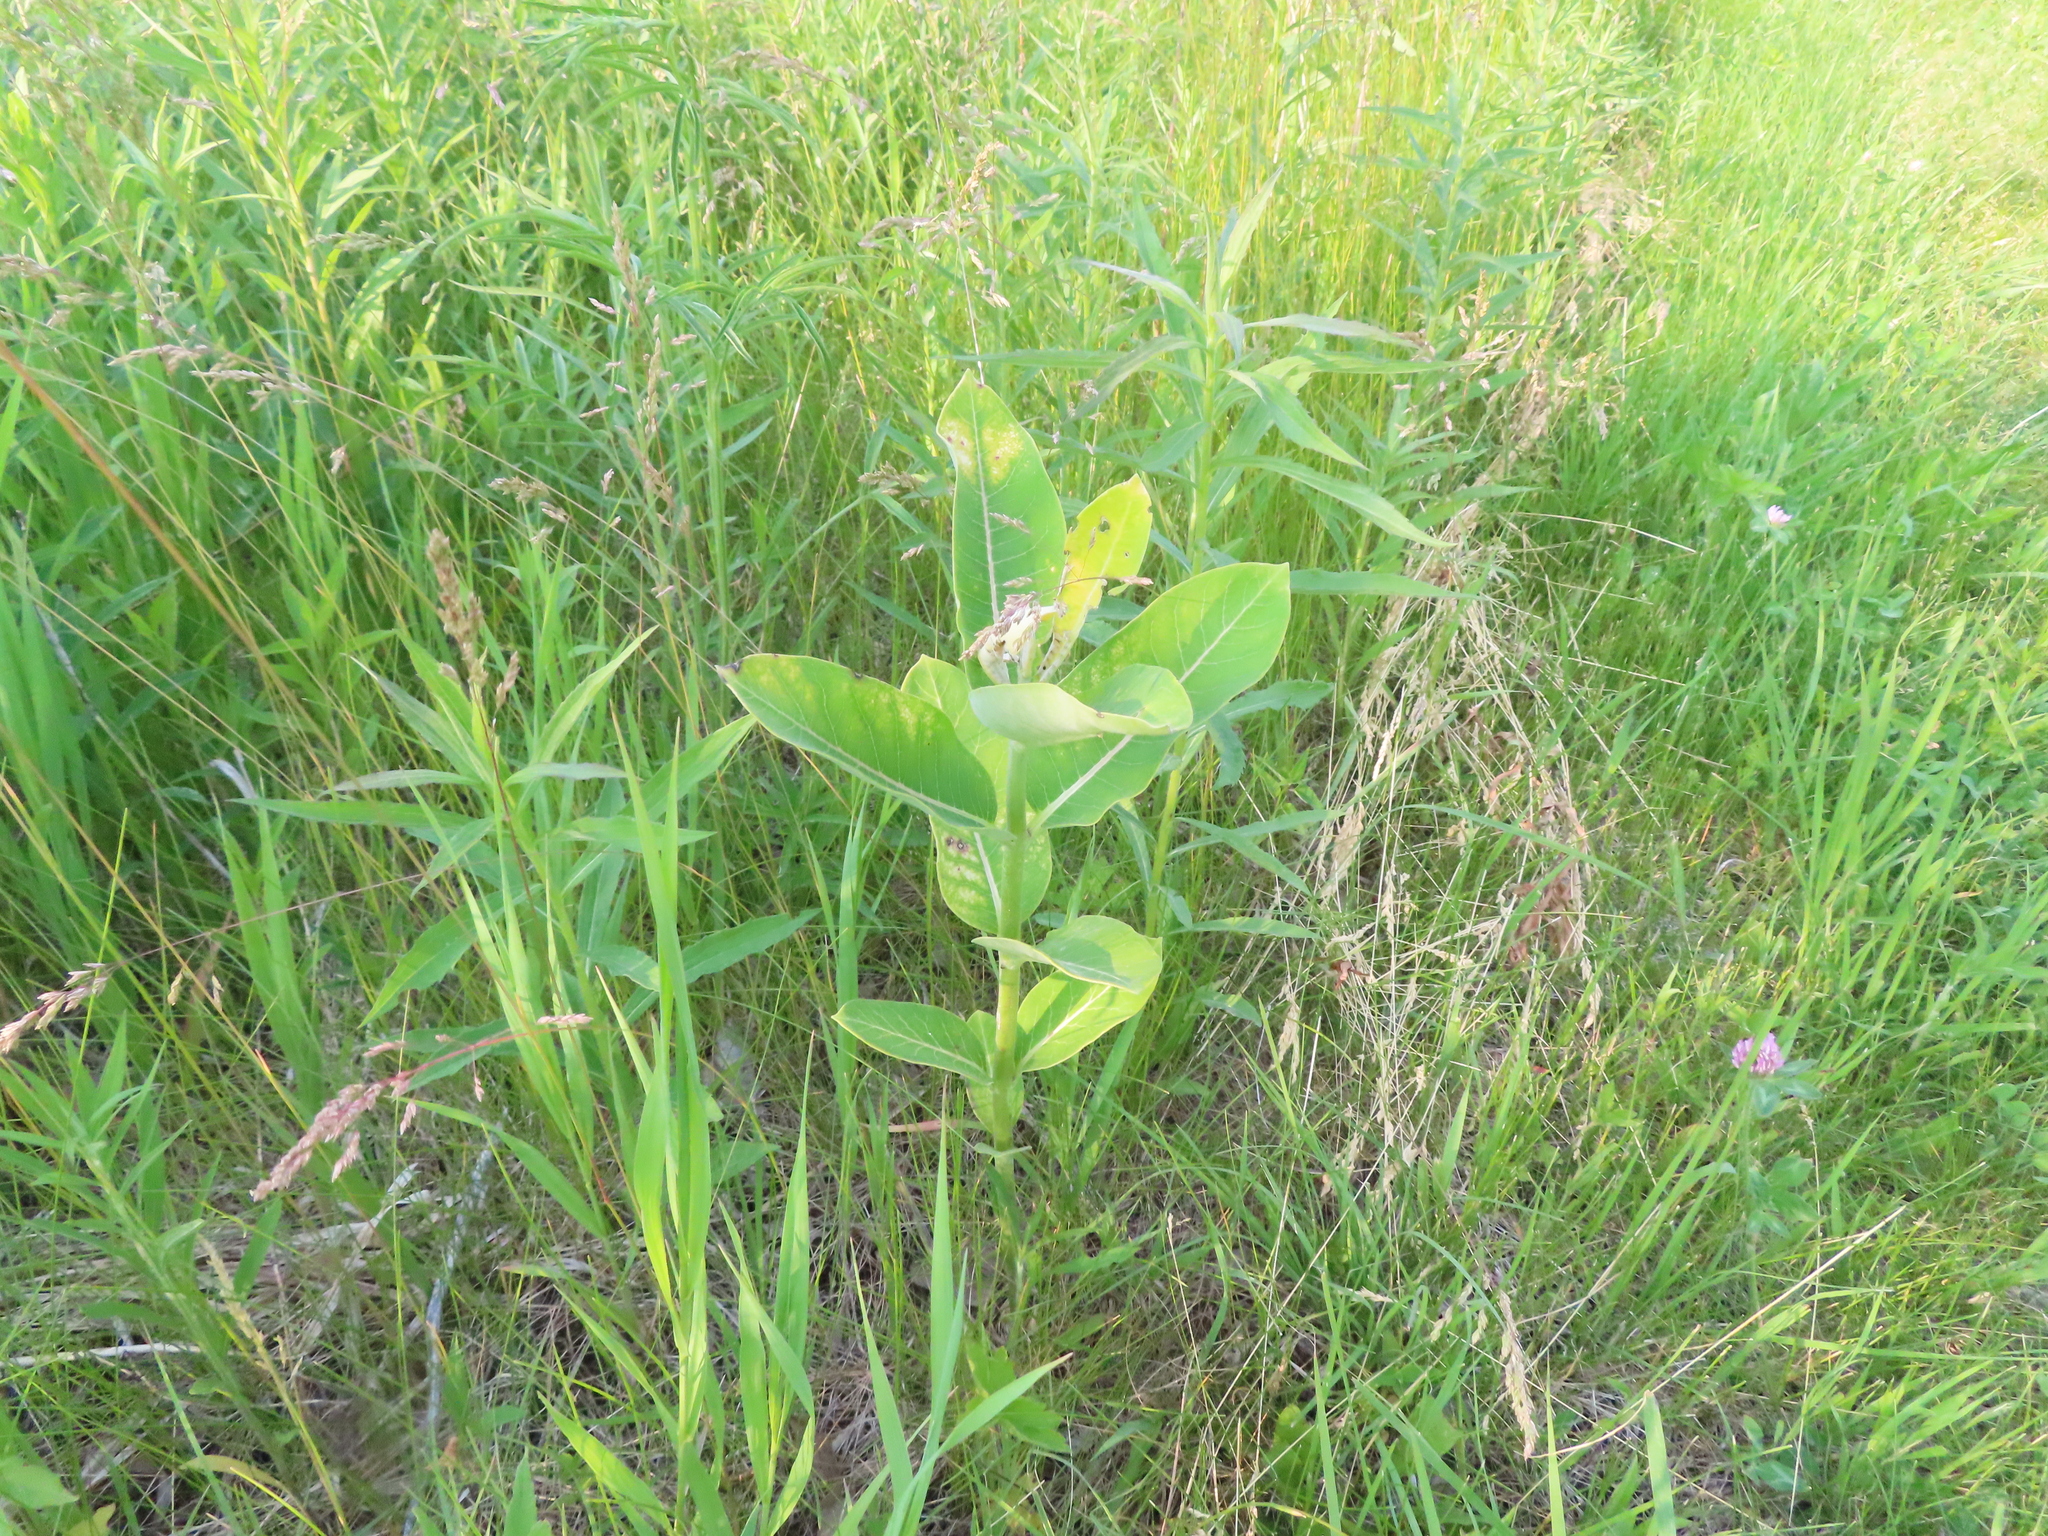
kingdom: Plantae
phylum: Tracheophyta
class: Magnoliopsida
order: Gentianales
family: Apocynaceae
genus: Asclepias
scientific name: Asclepias syriaca
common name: Common milkweed
